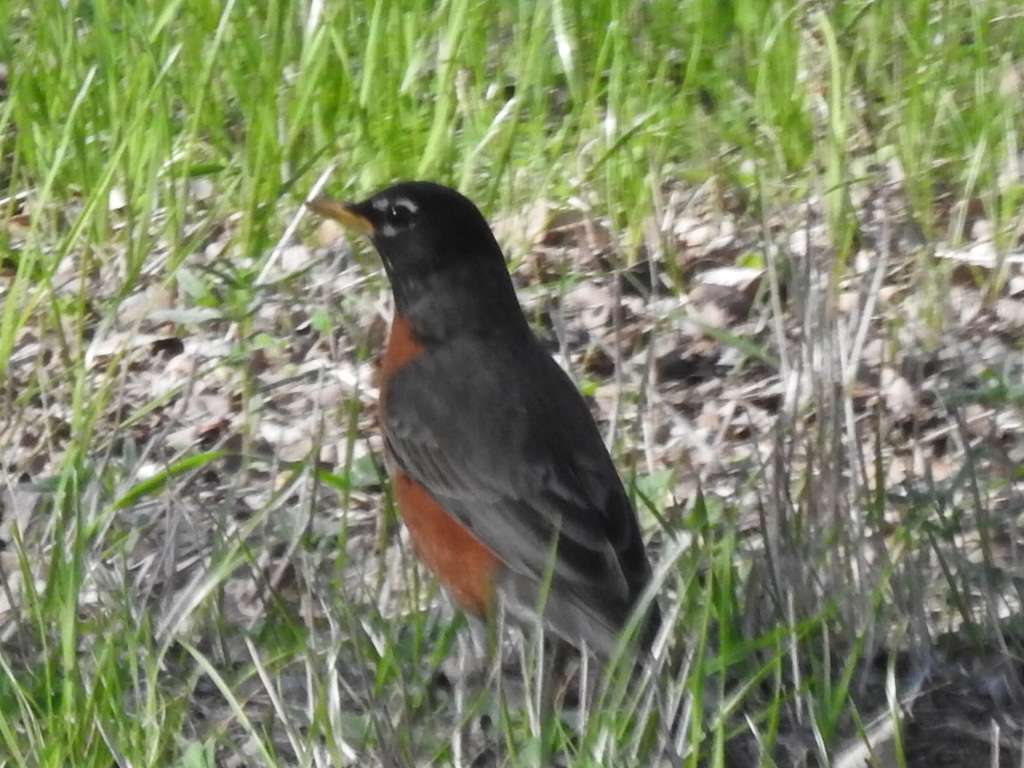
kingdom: Animalia
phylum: Chordata
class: Aves
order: Passeriformes
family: Turdidae
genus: Turdus
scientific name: Turdus migratorius
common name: American robin
